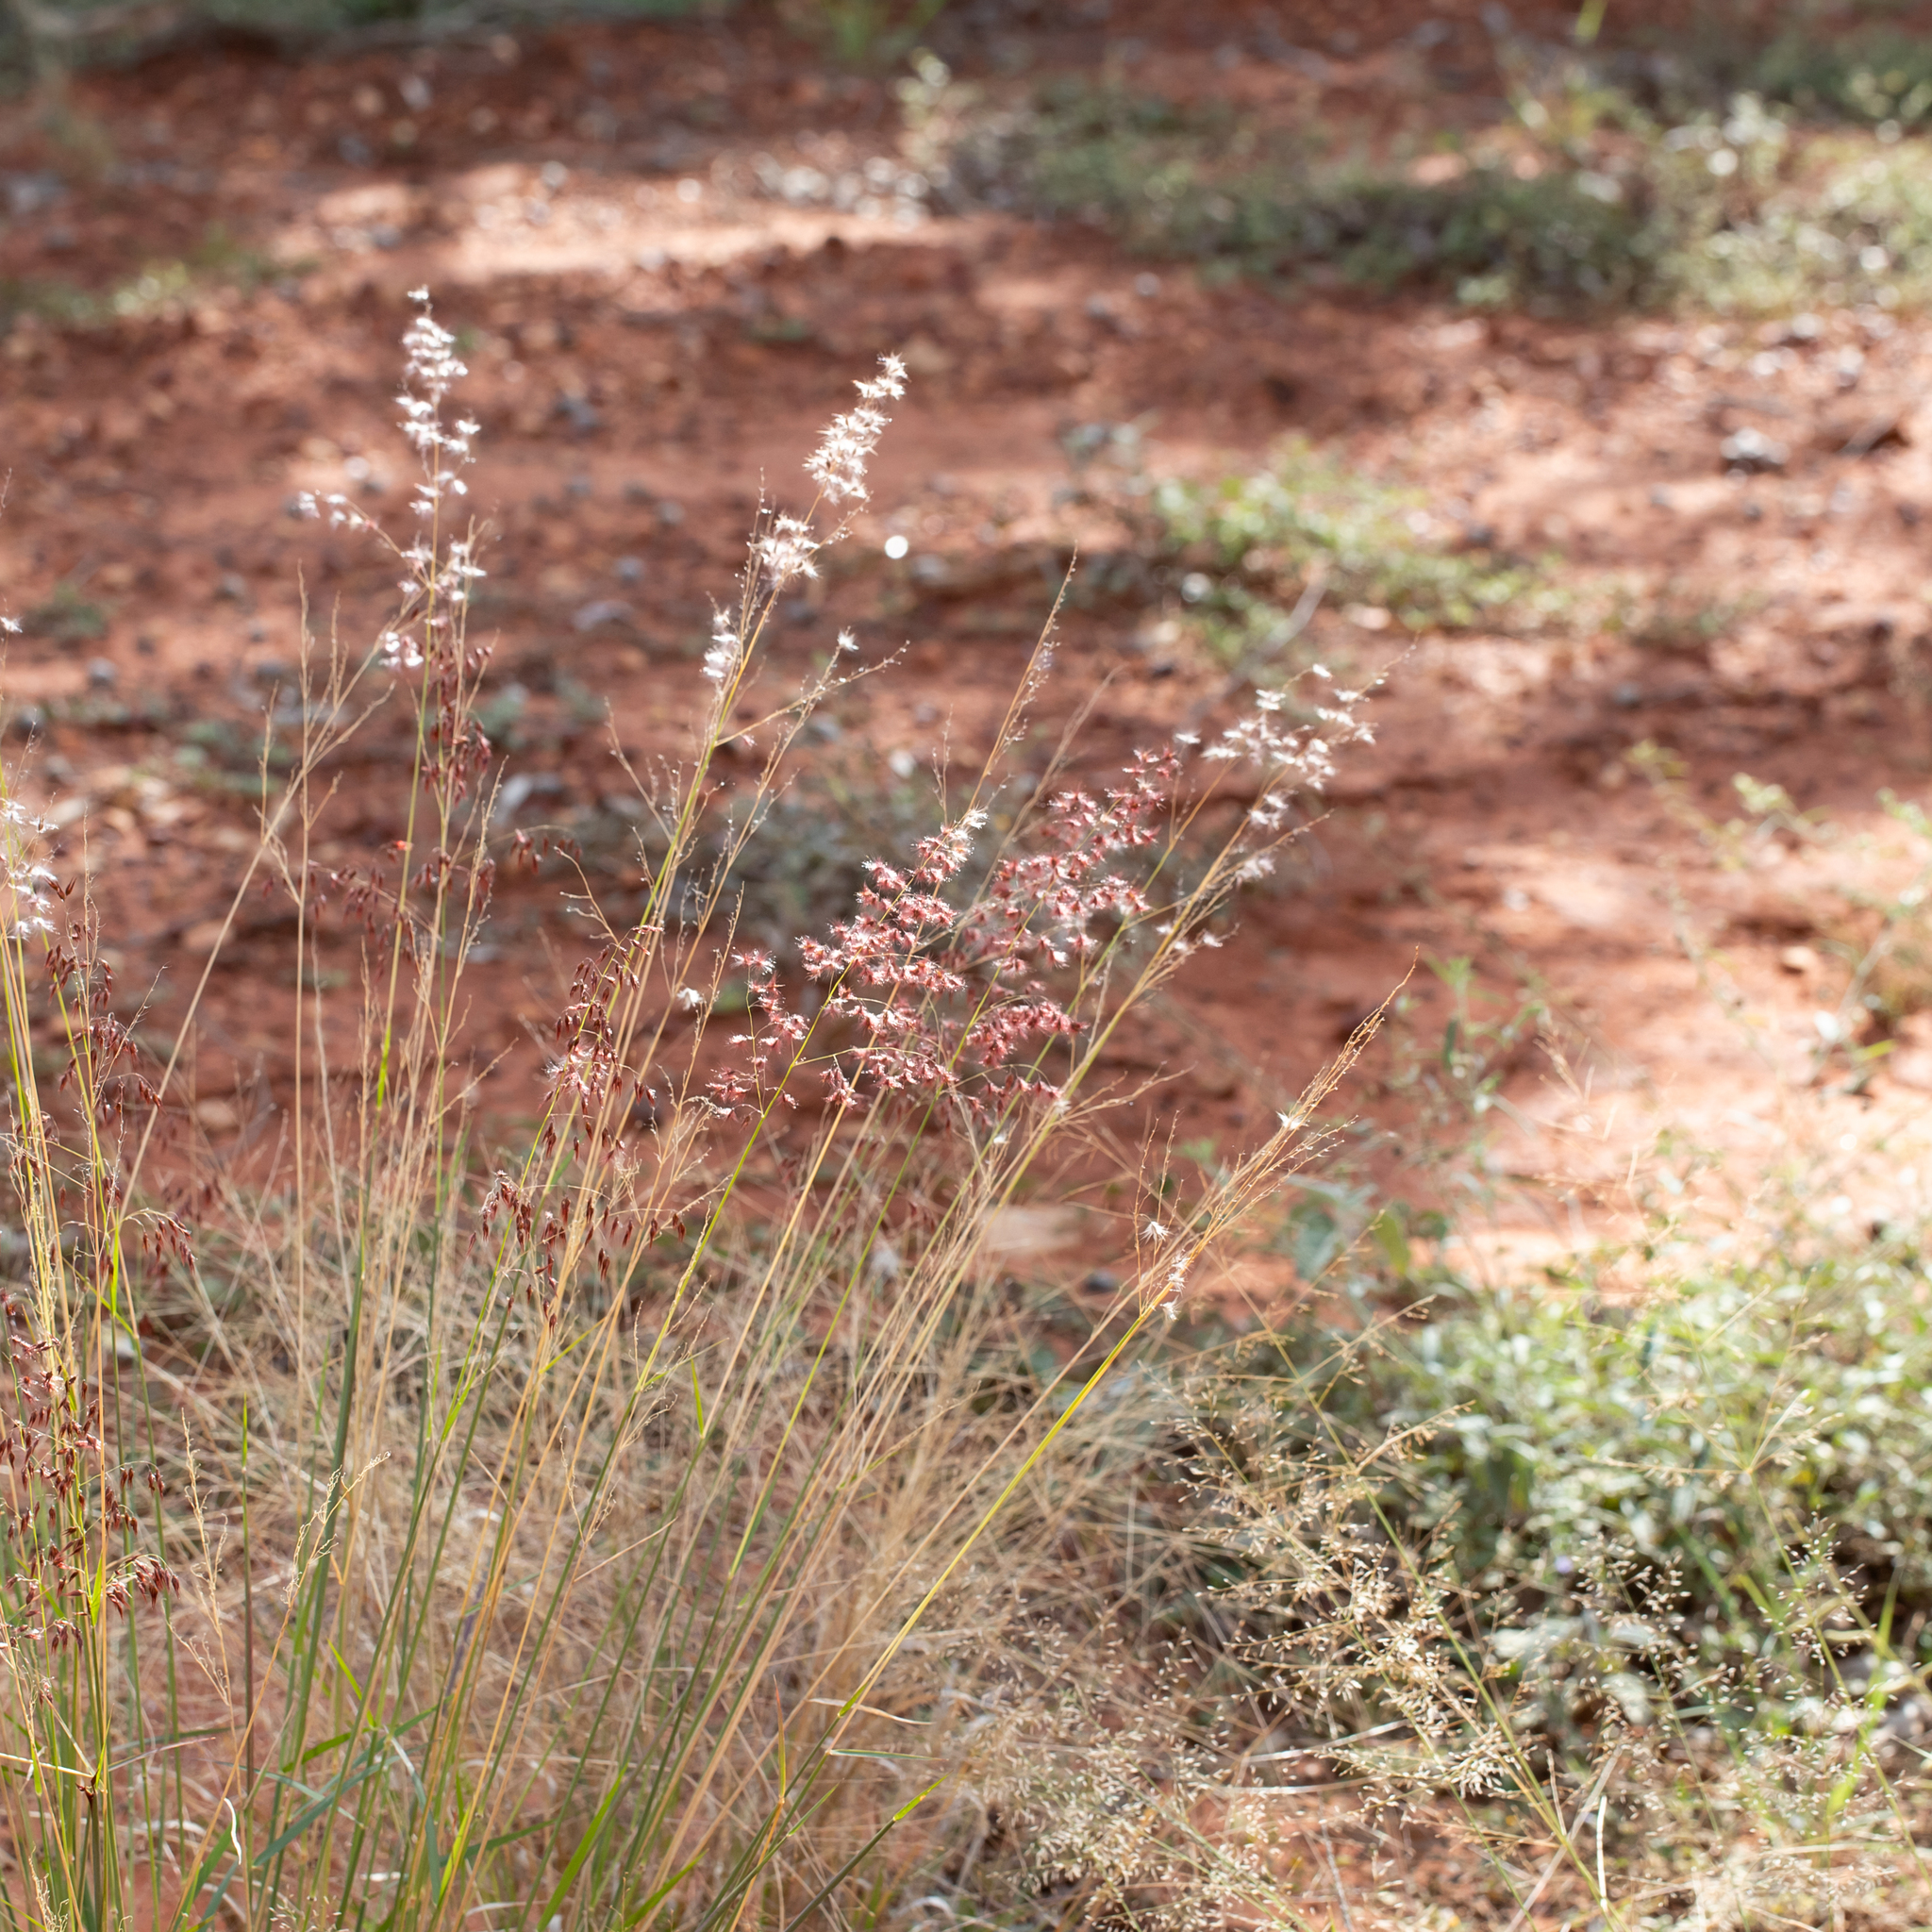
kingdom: Plantae
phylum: Tracheophyta
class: Liliopsida
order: Poales
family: Poaceae
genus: Melinis
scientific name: Melinis repens
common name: Rose natal grass
